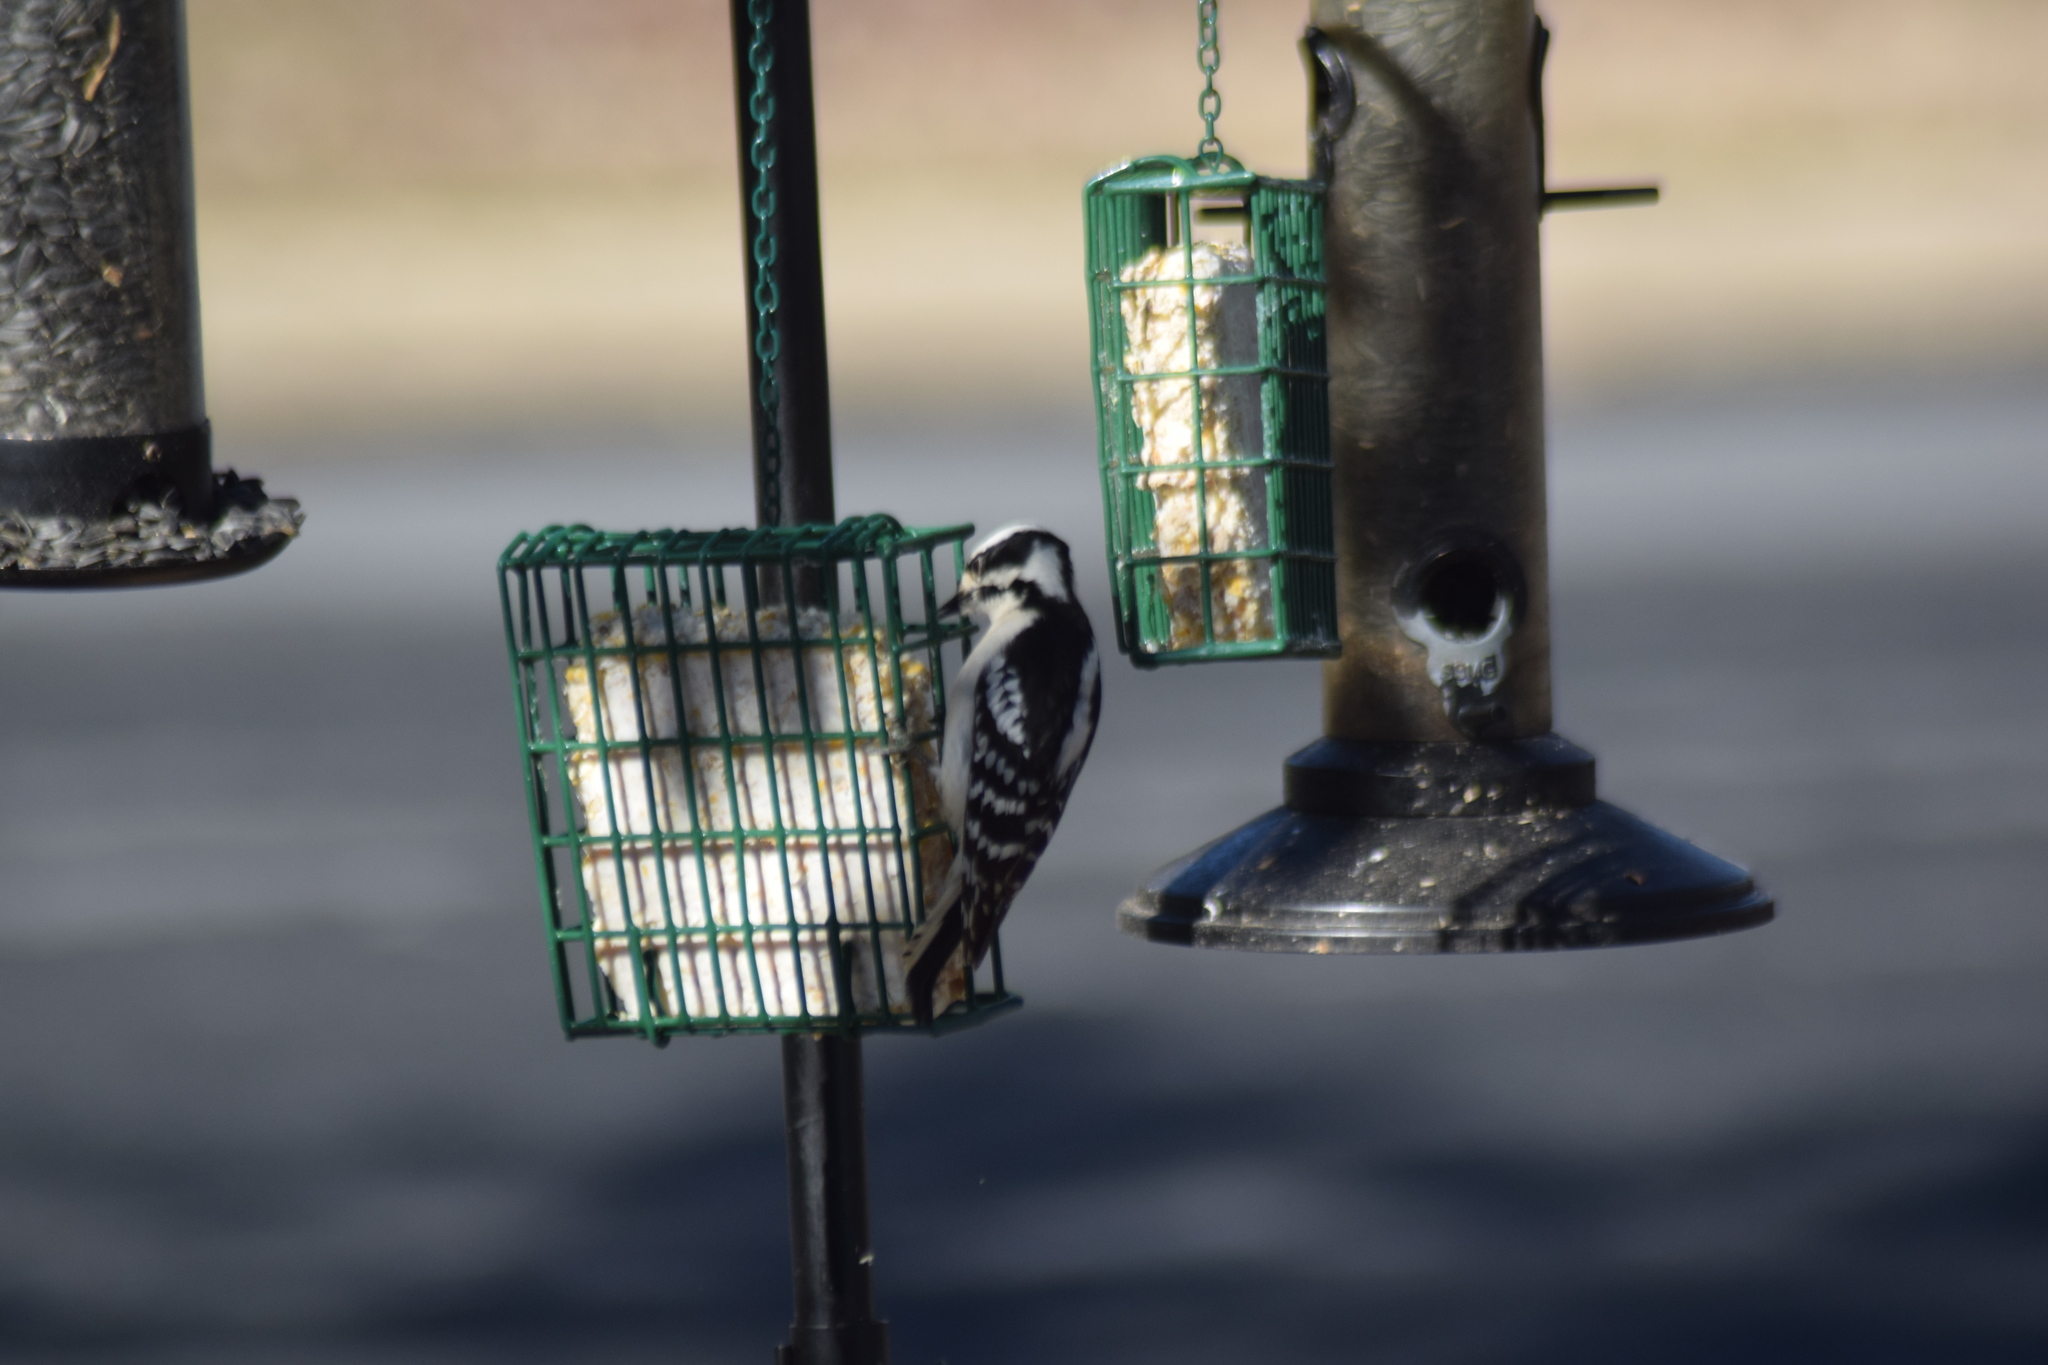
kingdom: Animalia
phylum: Chordata
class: Aves
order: Piciformes
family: Picidae
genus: Dryobates
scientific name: Dryobates pubescens
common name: Downy woodpecker
